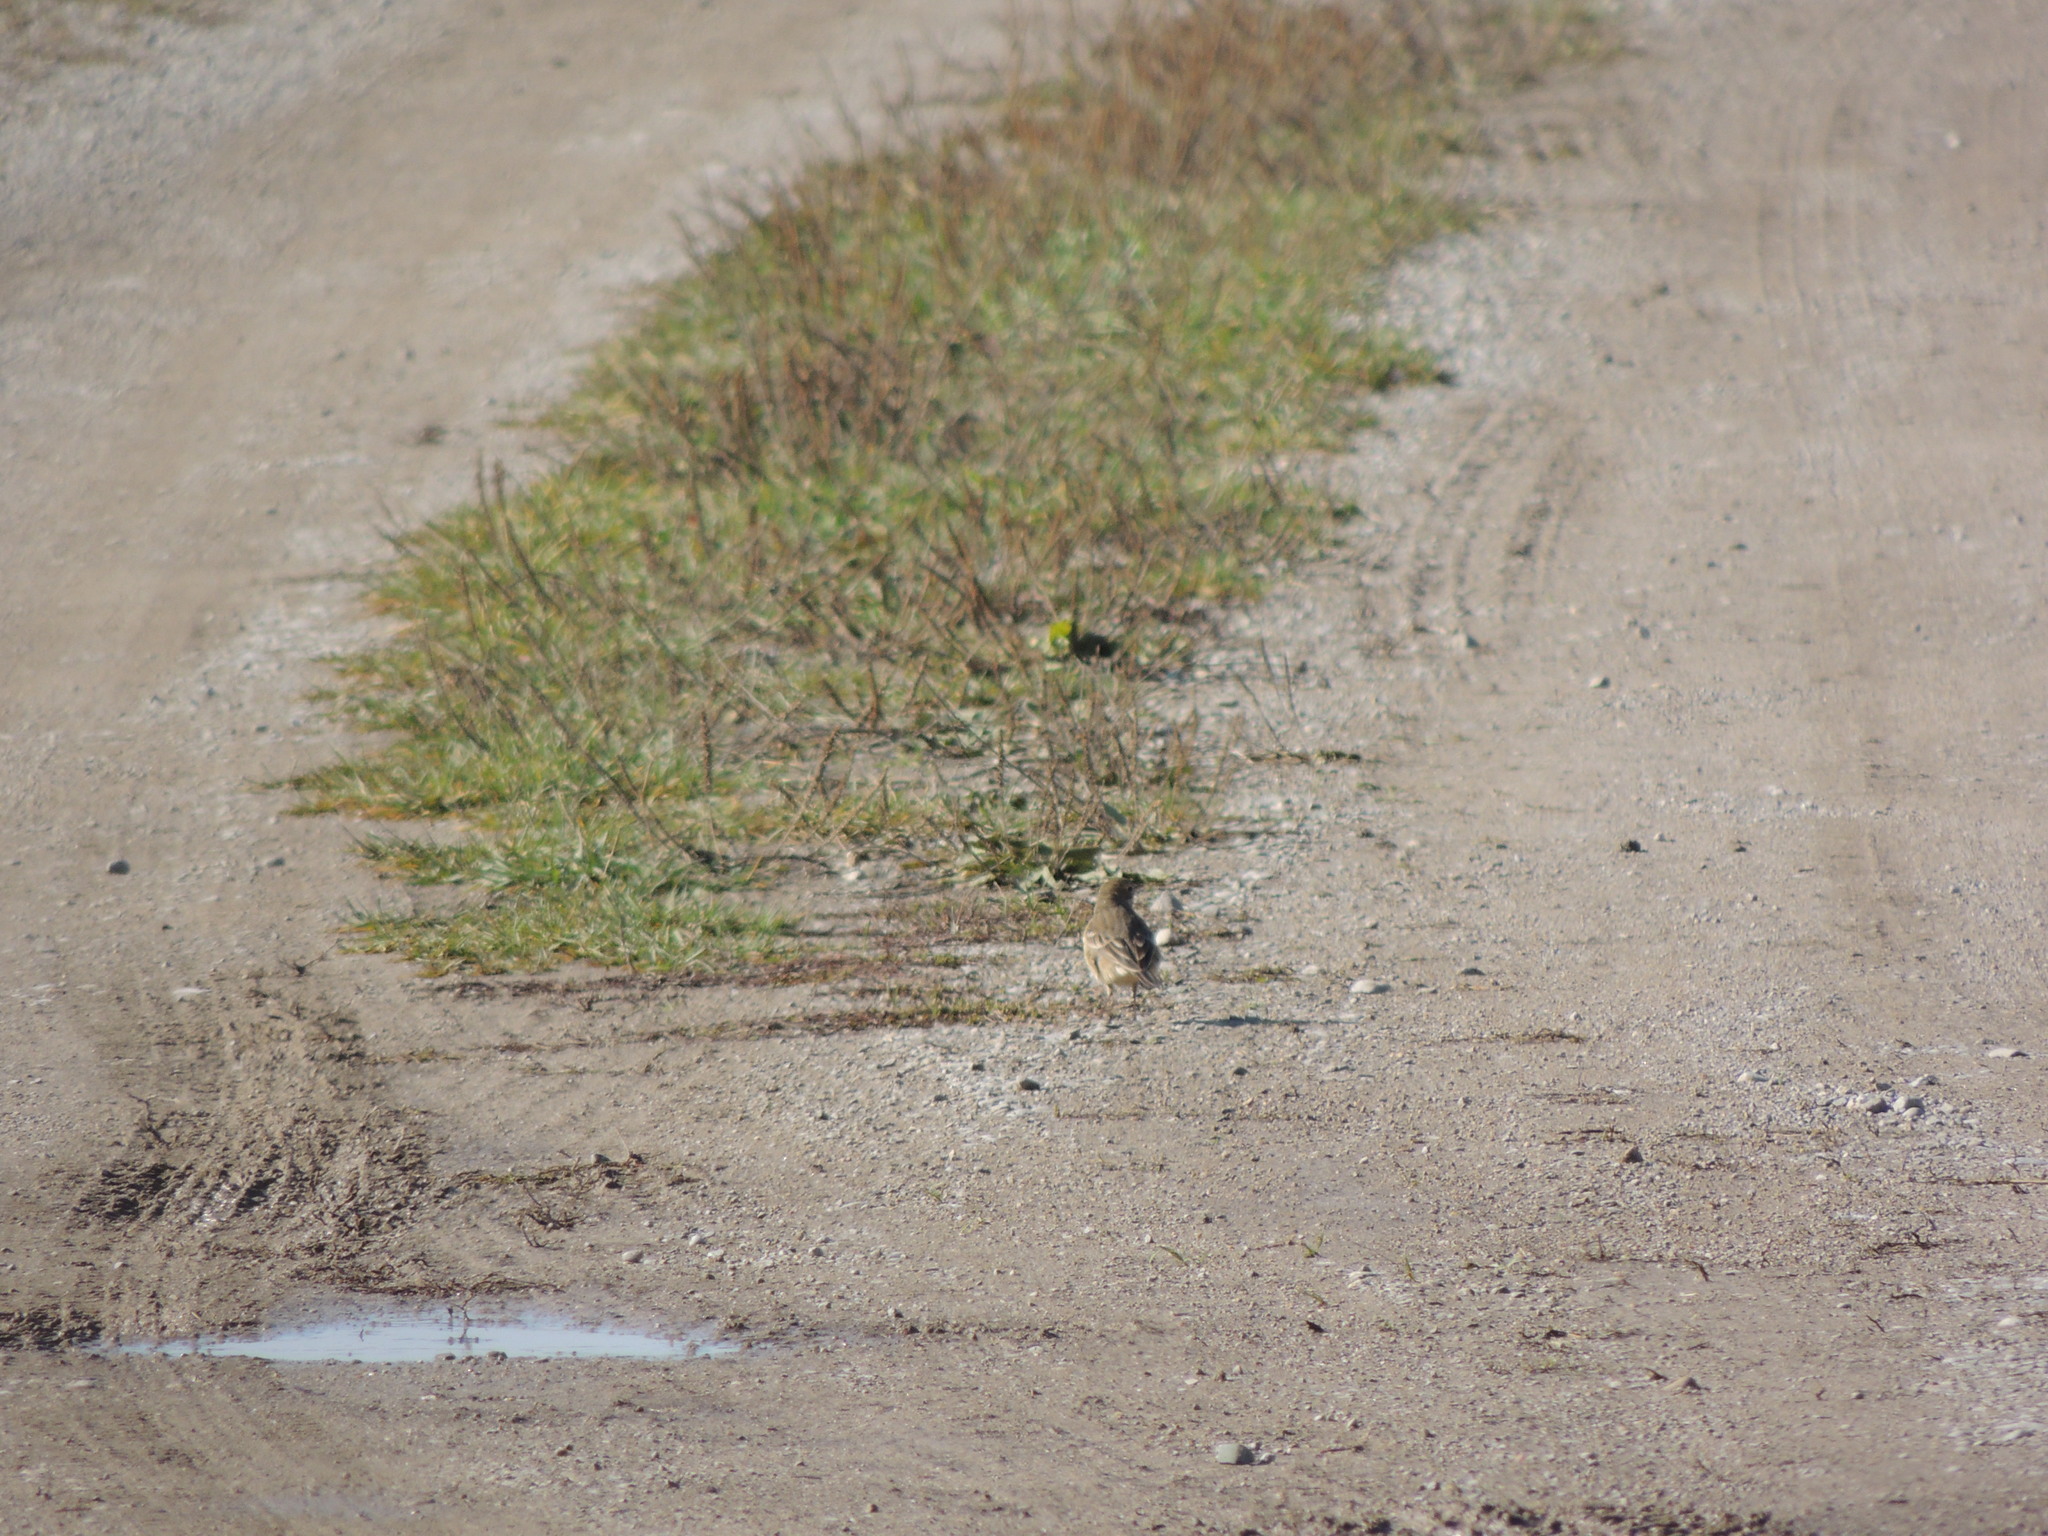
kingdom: Animalia
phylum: Chordata
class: Aves
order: Passeriformes
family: Motacillidae
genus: Anthus
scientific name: Anthus rubescens
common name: Buff-bellied pipit
